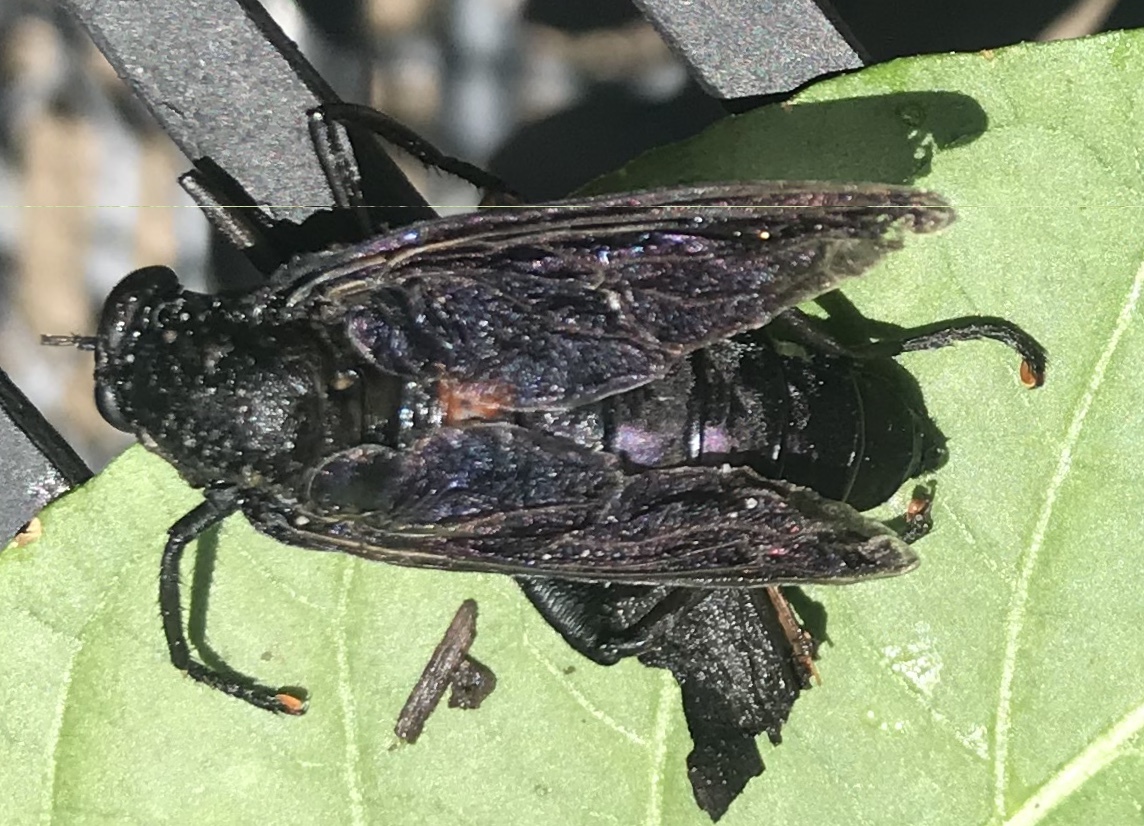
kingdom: Animalia
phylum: Arthropoda
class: Insecta
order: Diptera
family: Mydidae
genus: Mydas
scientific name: Mydas clavatus
